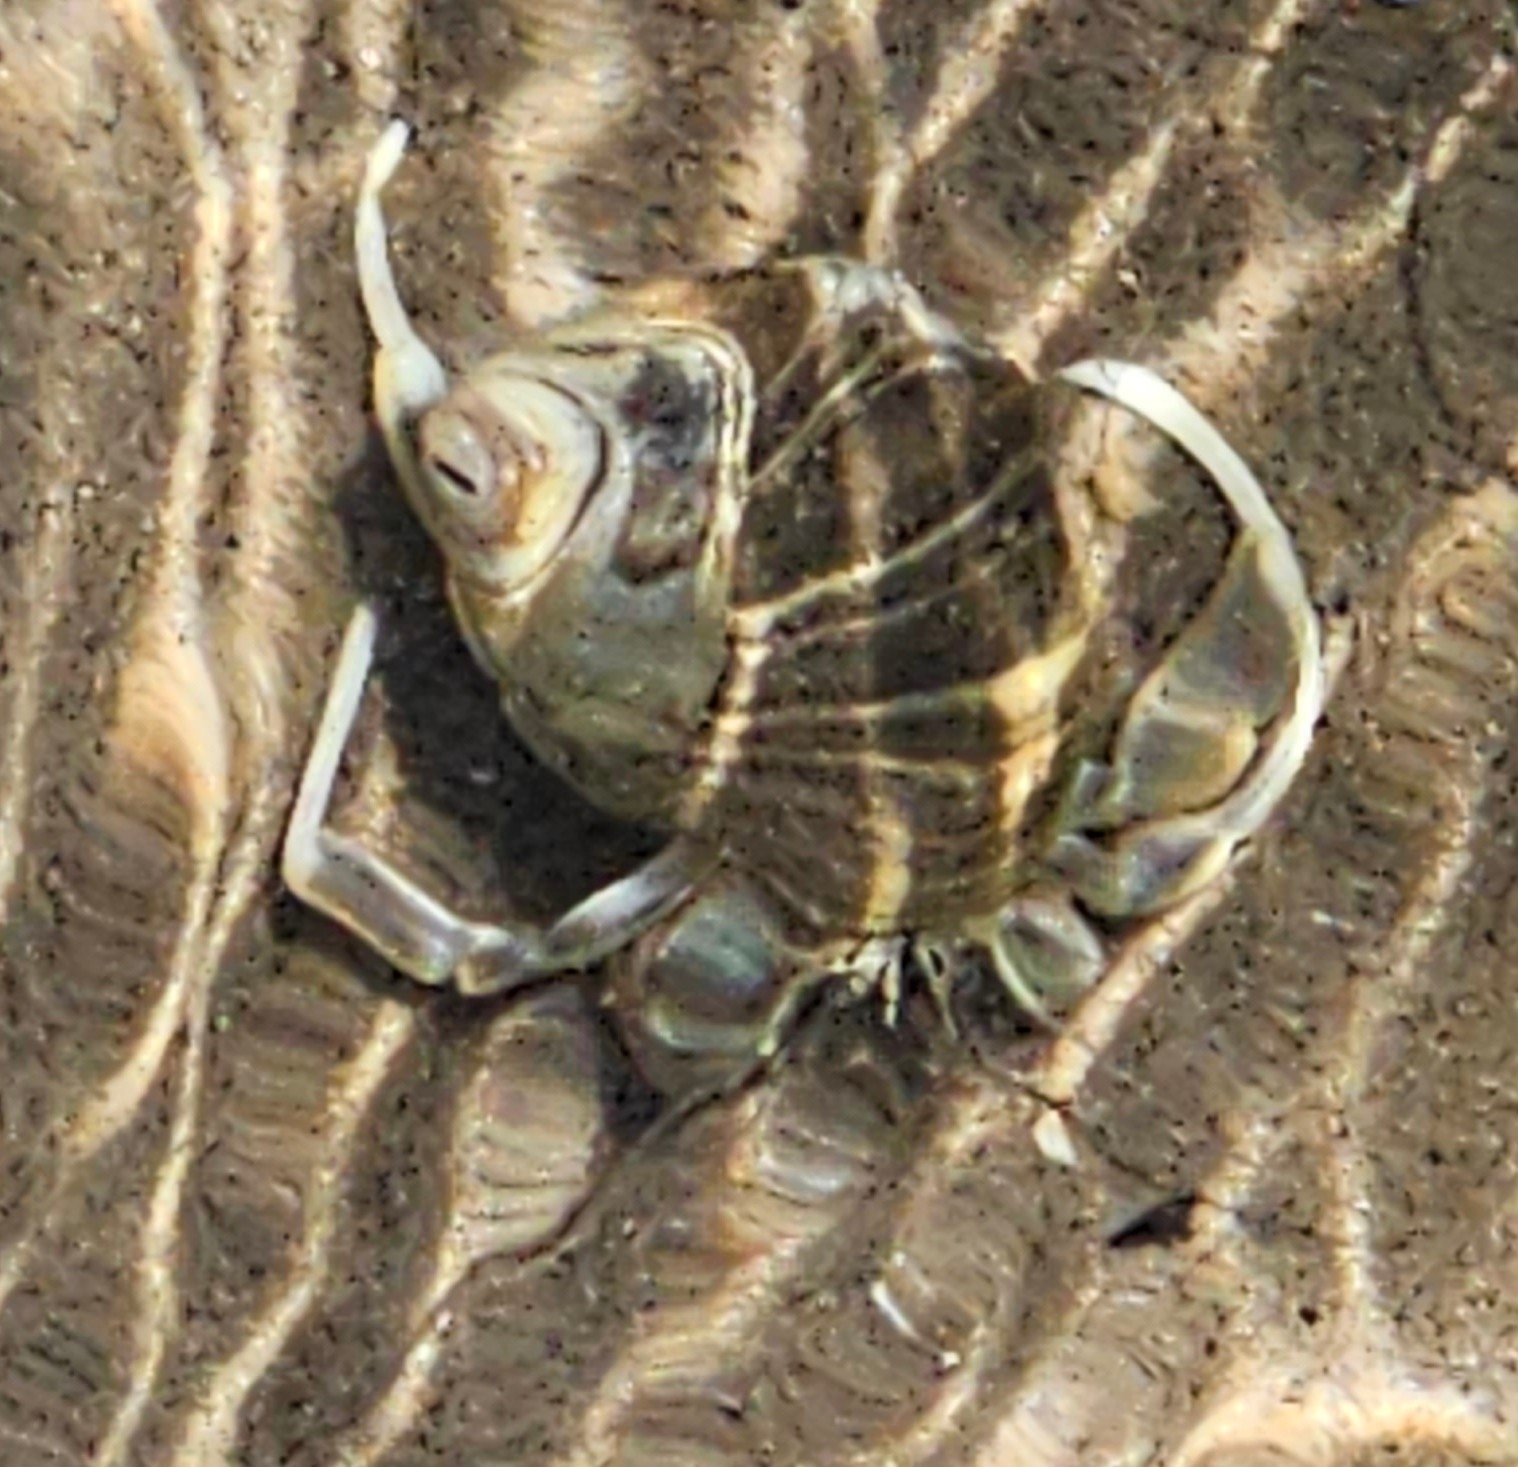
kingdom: Animalia
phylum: Arthropoda
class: Malacostraca
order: Decapoda
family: Paguridae
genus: Pagurus
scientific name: Pagurus longicarpus
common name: Long-armed hermit crab
